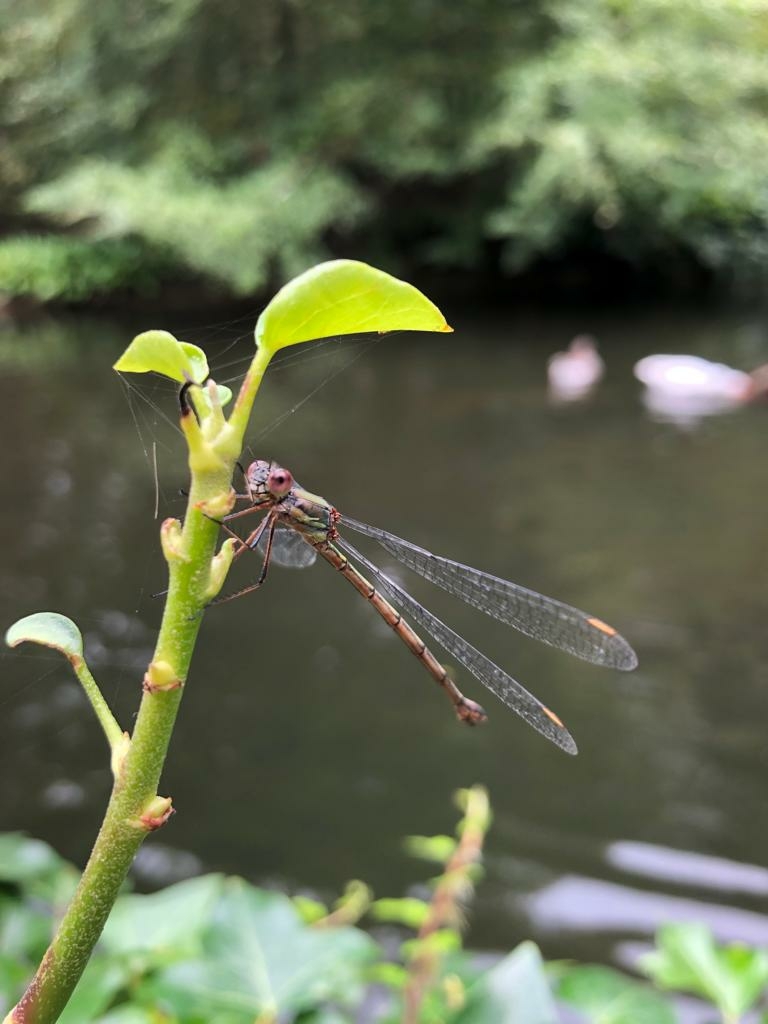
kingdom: Animalia
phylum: Arthropoda
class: Insecta
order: Odonata
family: Lestidae
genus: Chalcolestes
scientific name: Chalcolestes viridis
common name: Green emerald damselfly
